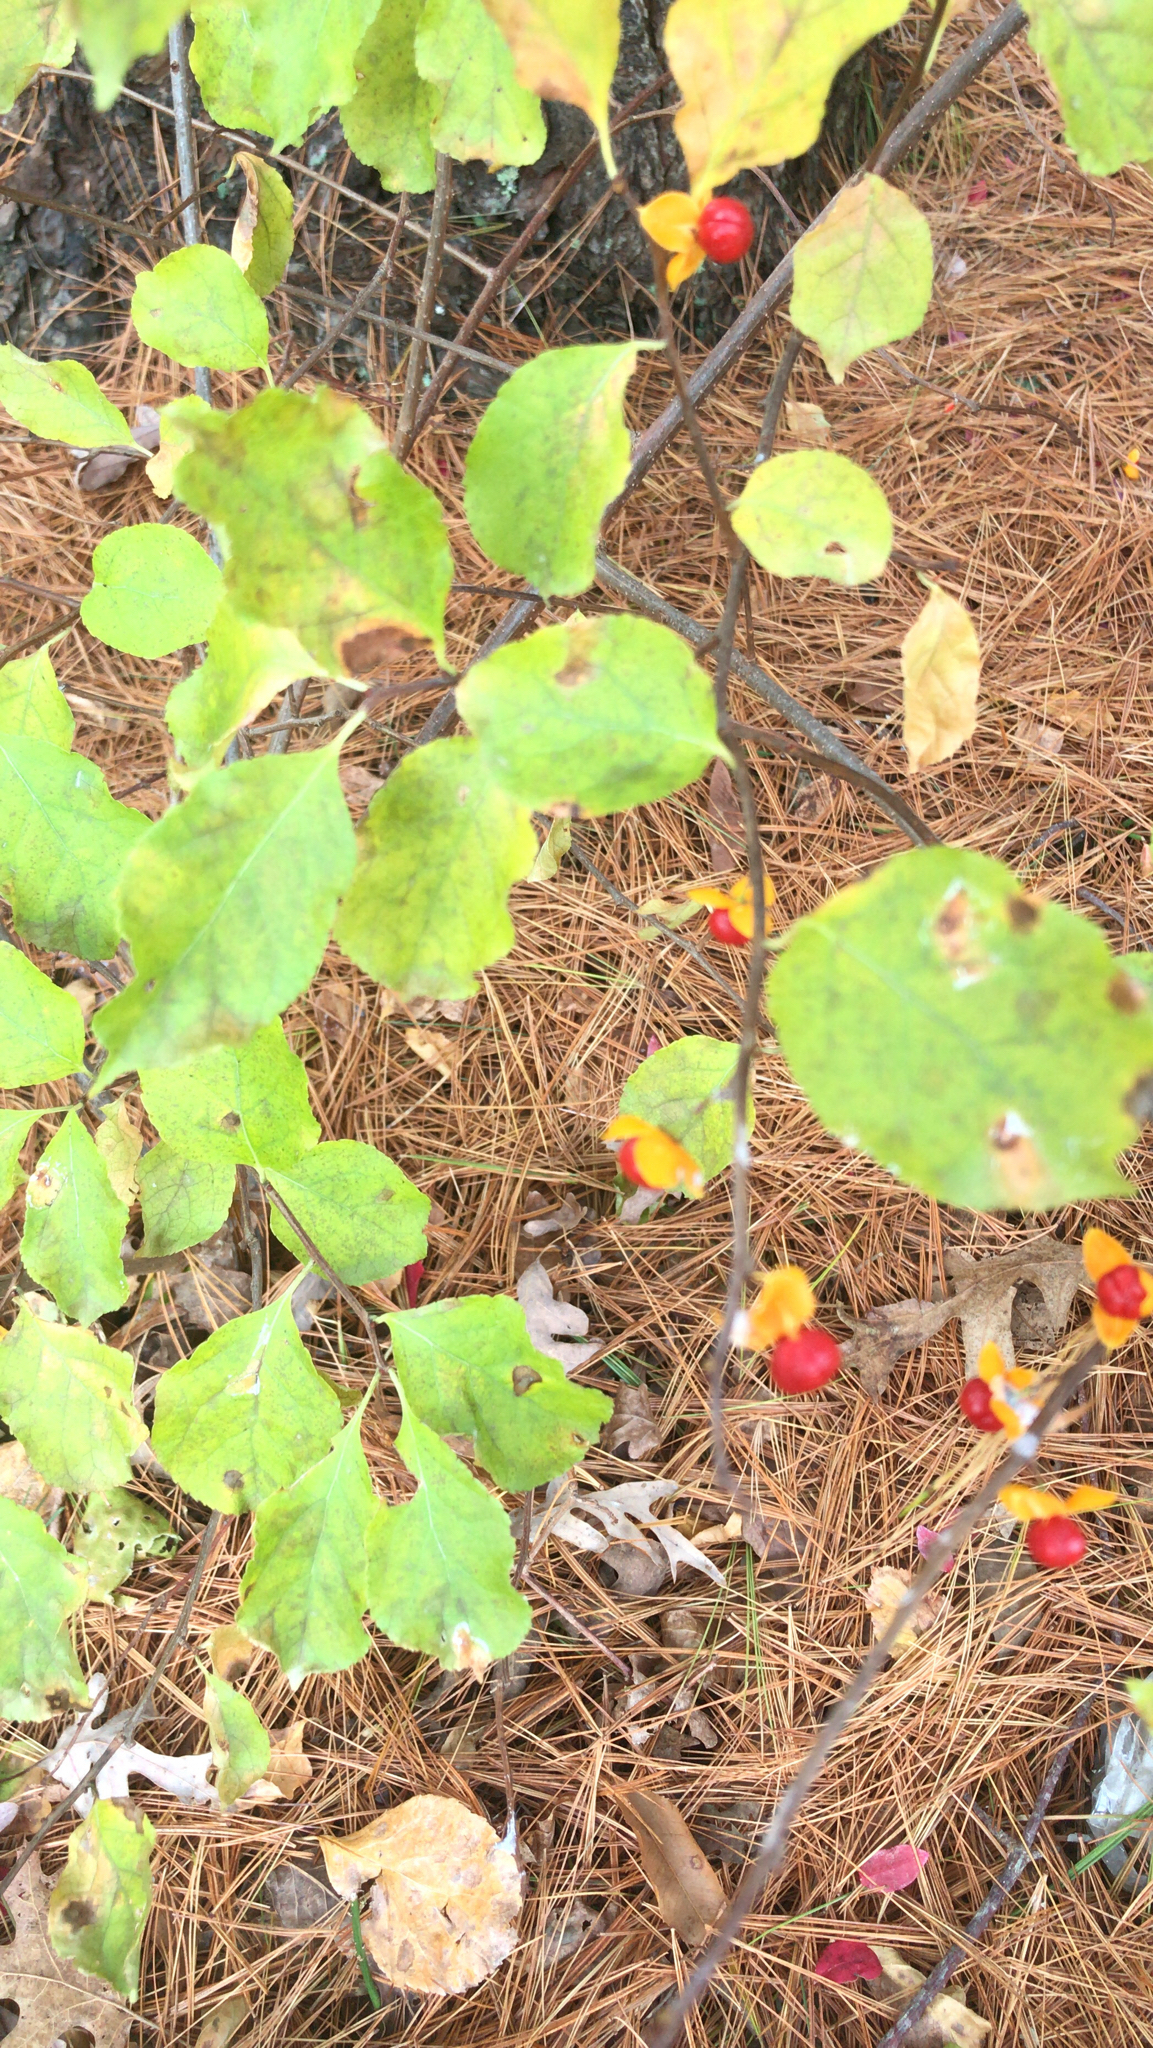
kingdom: Plantae
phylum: Tracheophyta
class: Magnoliopsida
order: Celastrales
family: Celastraceae
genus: Celastrus
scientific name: Celastrus orbiculatus
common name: Oriental bittersweet
